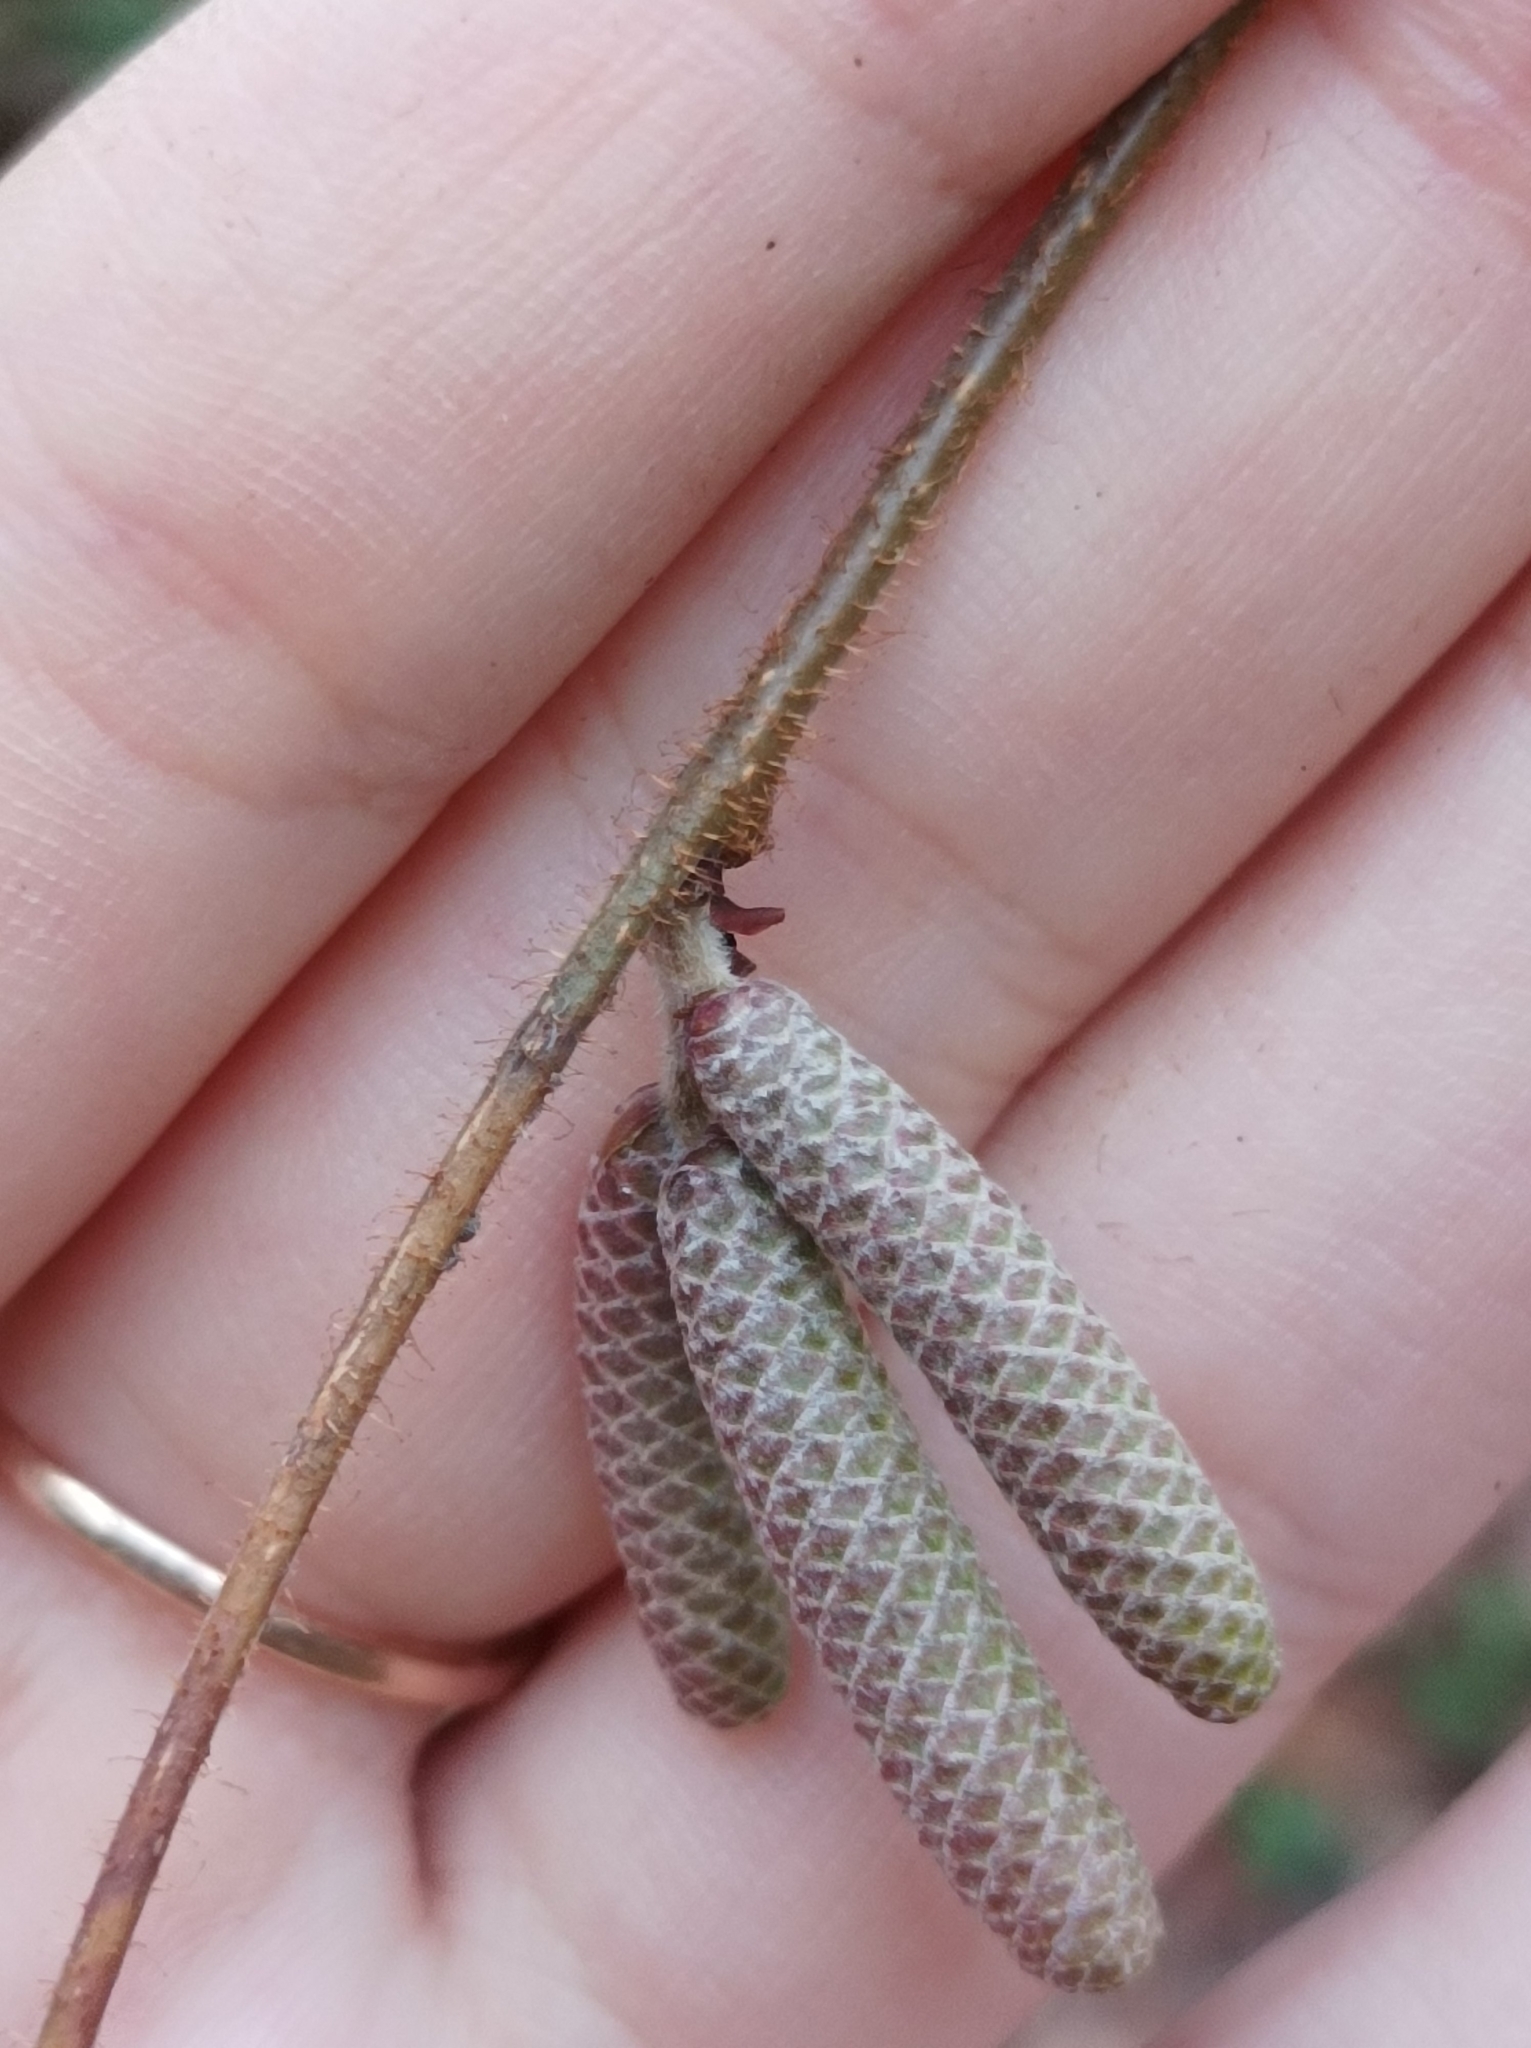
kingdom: Plantae
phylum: Tracheophyta
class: Magnoliopsida
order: Fagales
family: Betulaceae
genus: Corylus
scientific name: Corylus avellana
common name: European hazel
